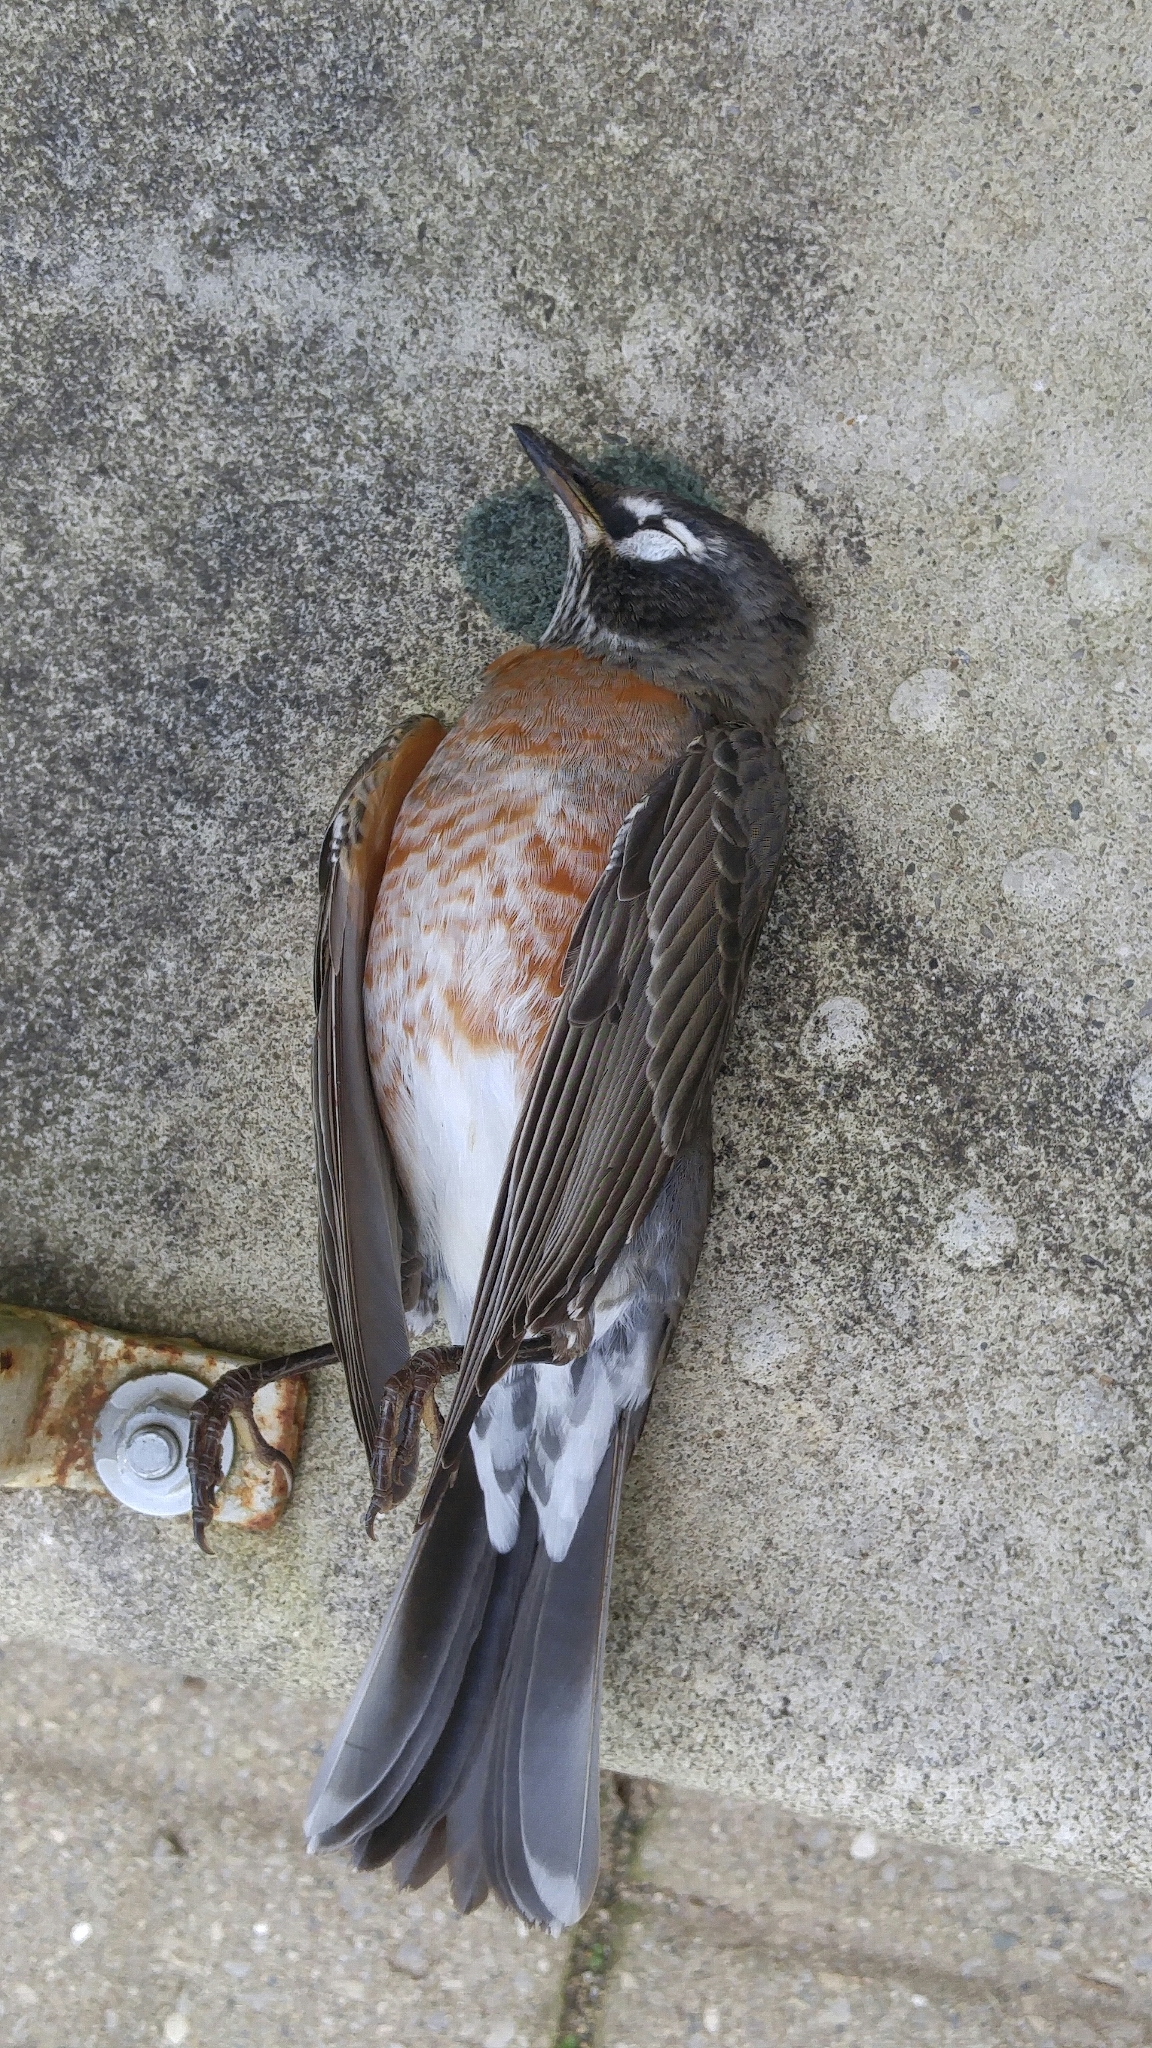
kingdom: Animalia
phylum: Chordata
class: Aves
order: Passeriformes
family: Turdidae
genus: Turdus
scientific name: Turdus migratorius
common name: American robin
